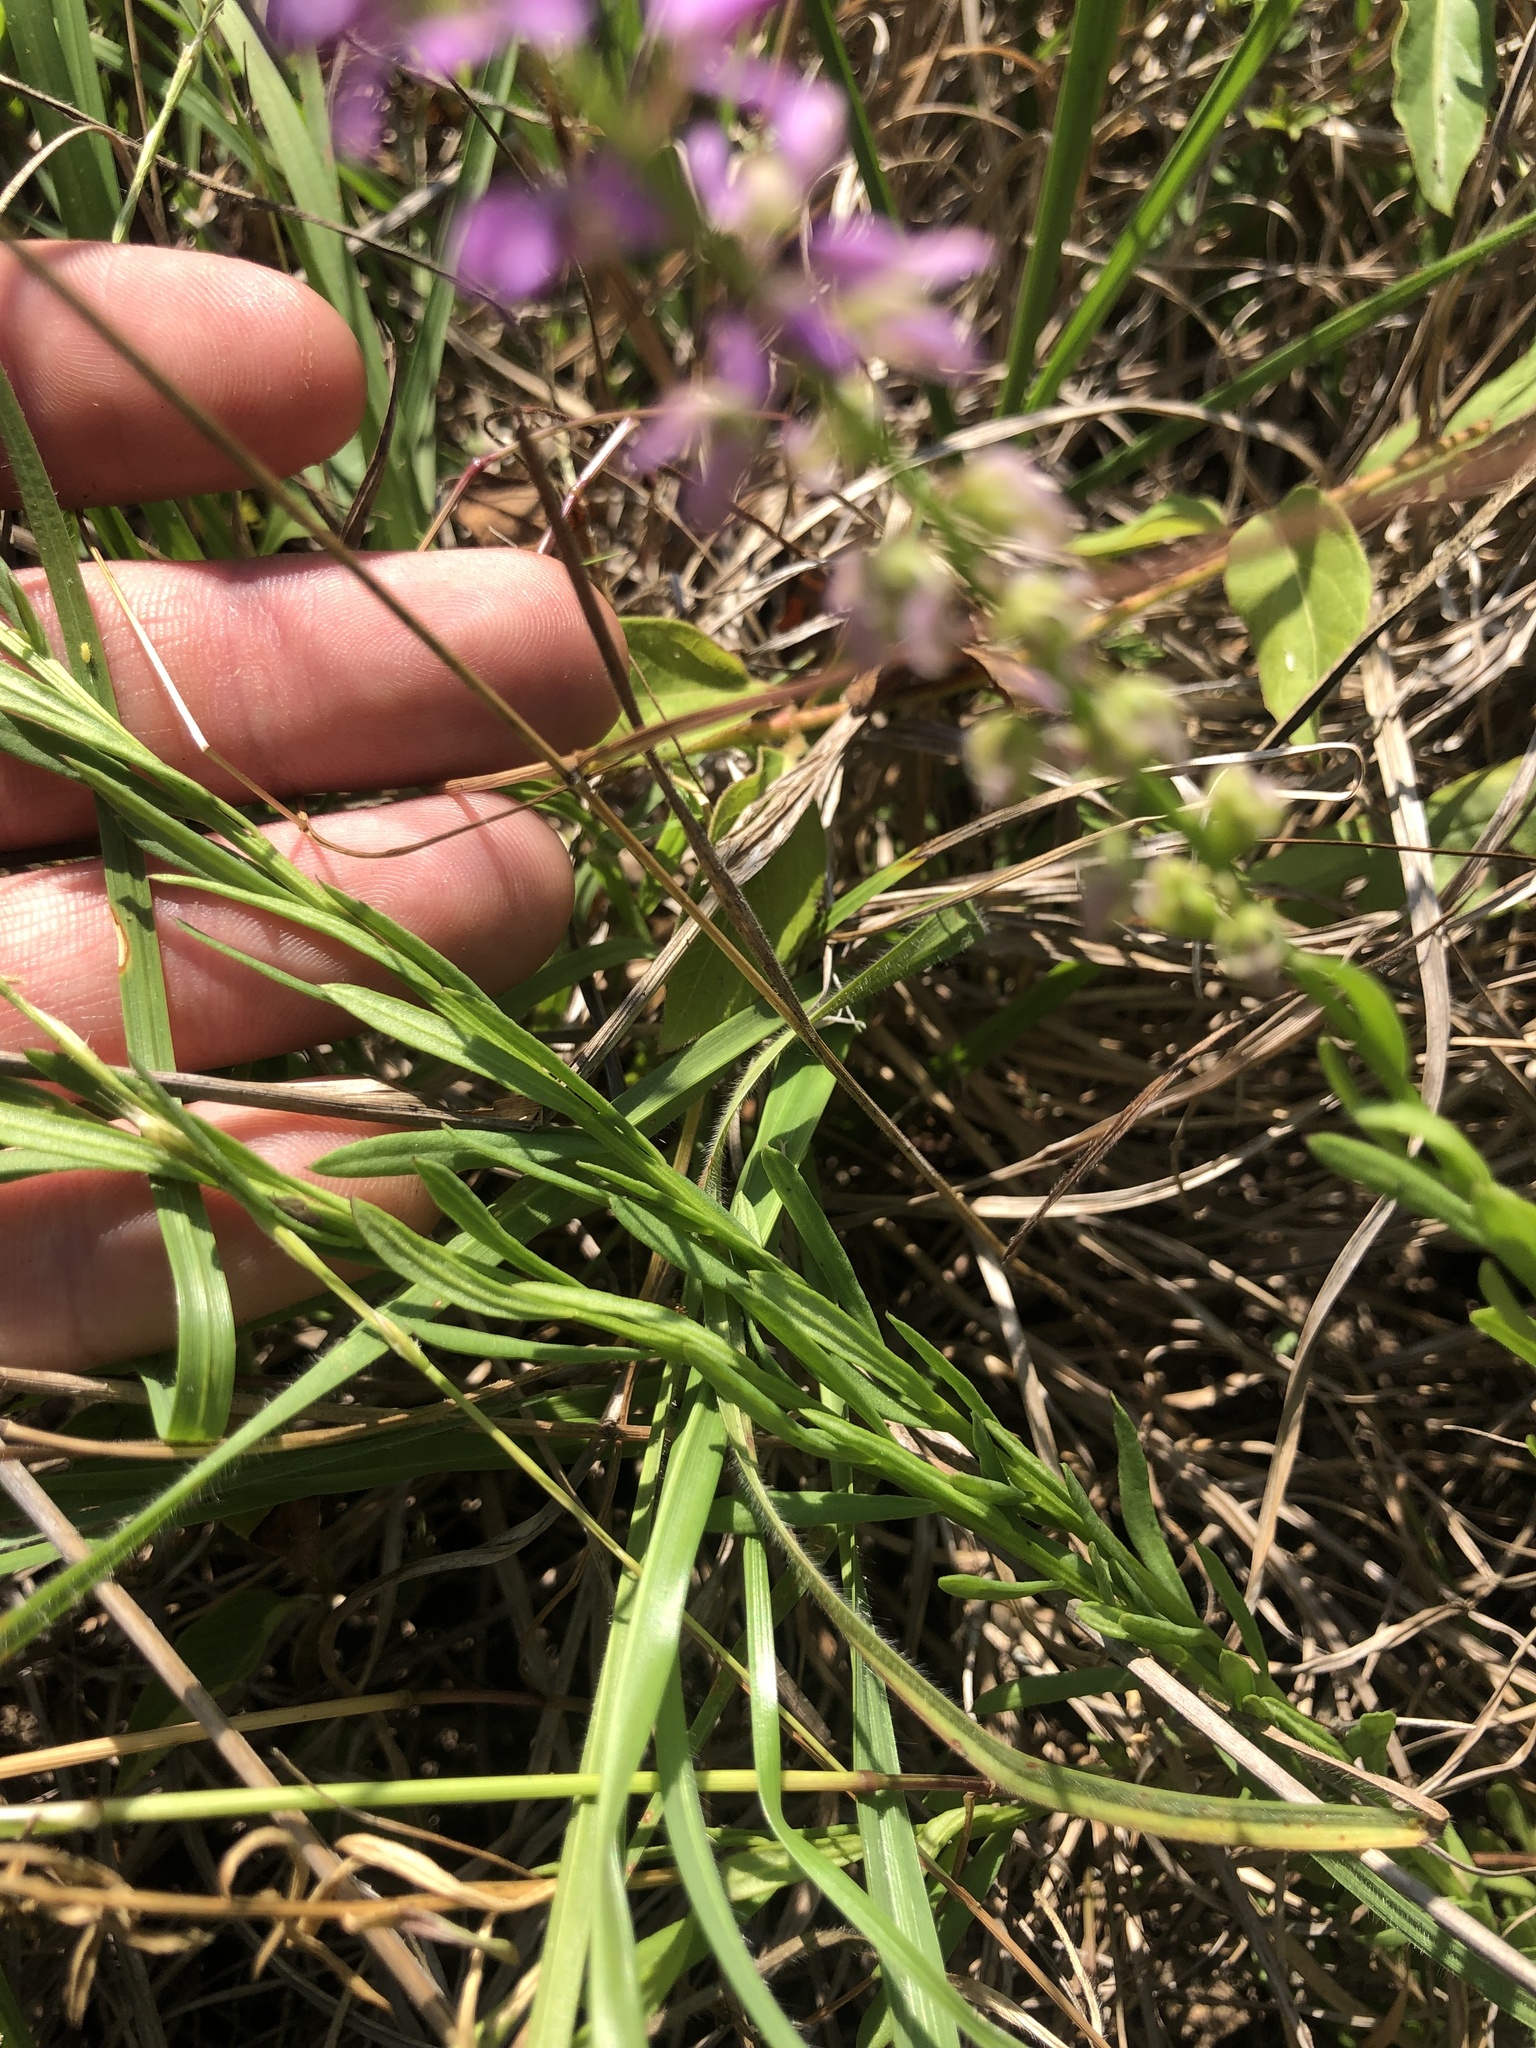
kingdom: Plantae
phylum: Tracheophyta
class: Magnoliopsida
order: Fabales
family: Polygalaceae
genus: Polygala
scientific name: Polygala polygama
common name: Bitter milkwort
